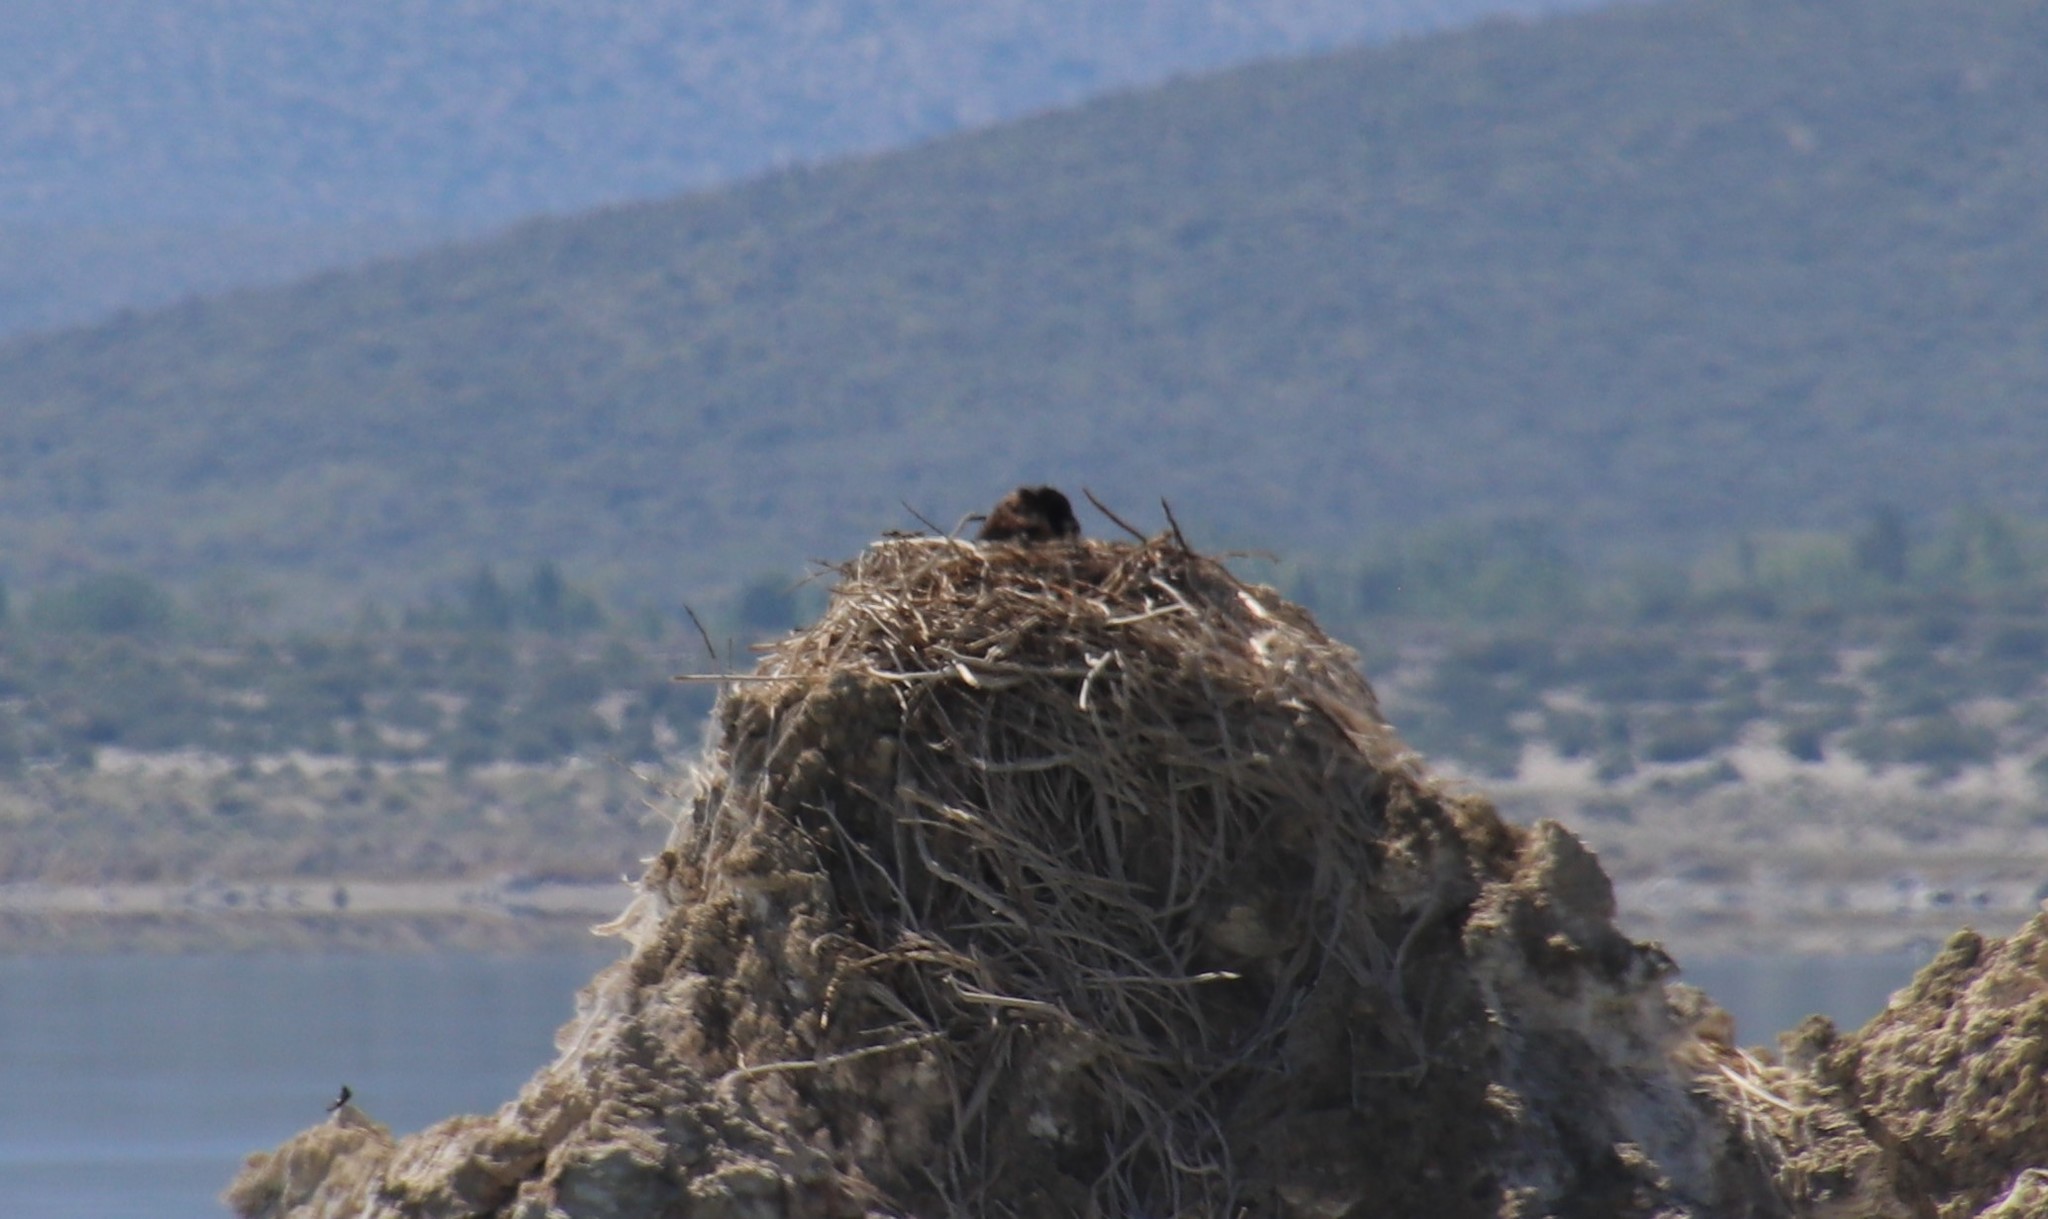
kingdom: Animalia
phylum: Chordata
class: Aves
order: Accipitriformes
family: Pandionidae
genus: Pandion
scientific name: Pandion haliaetus
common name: Osprey
